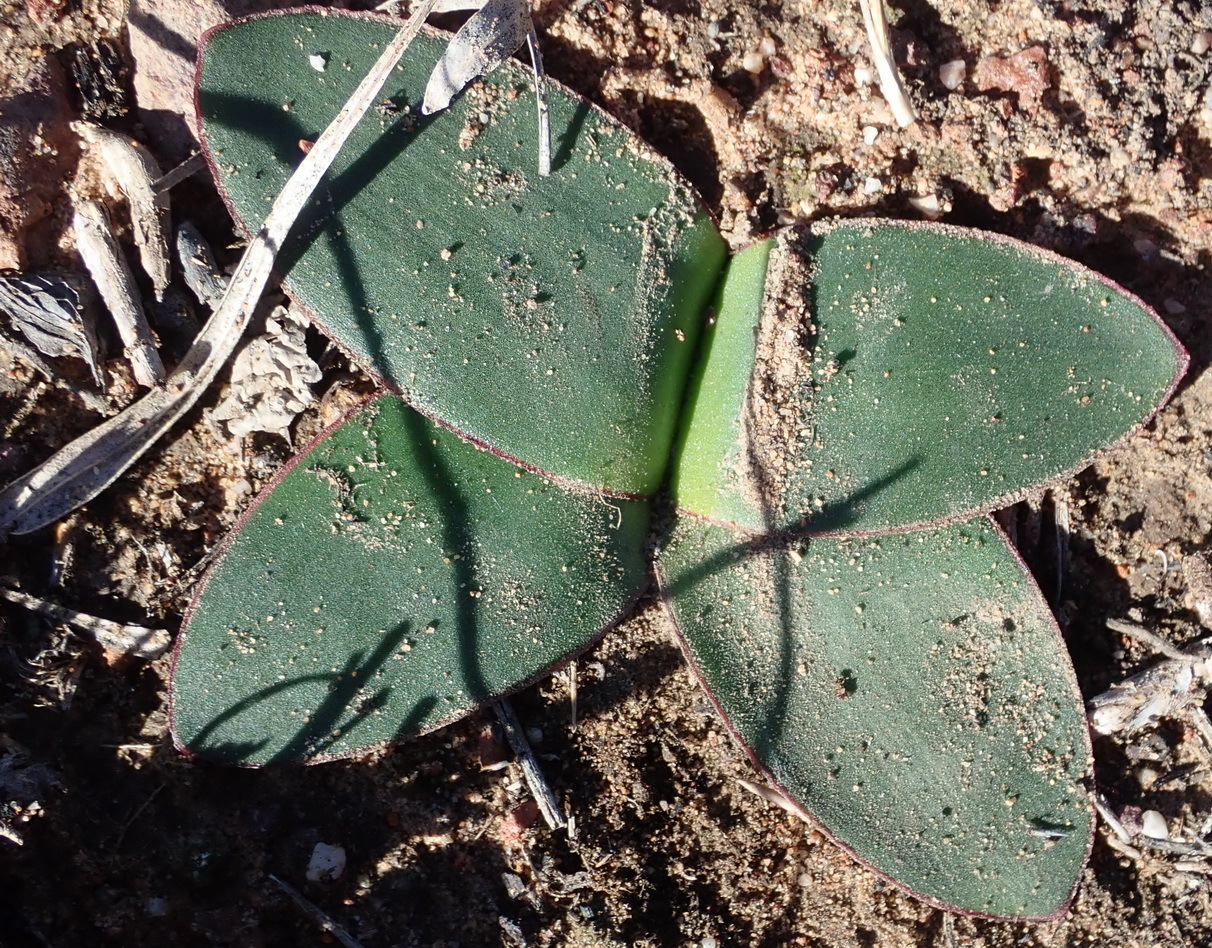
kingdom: Plantae
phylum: Tracheophyta
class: Liliopsida
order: Asparagales
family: Amaryllidaceae
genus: Brunsvigia
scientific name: Brunsvigia nervosa
